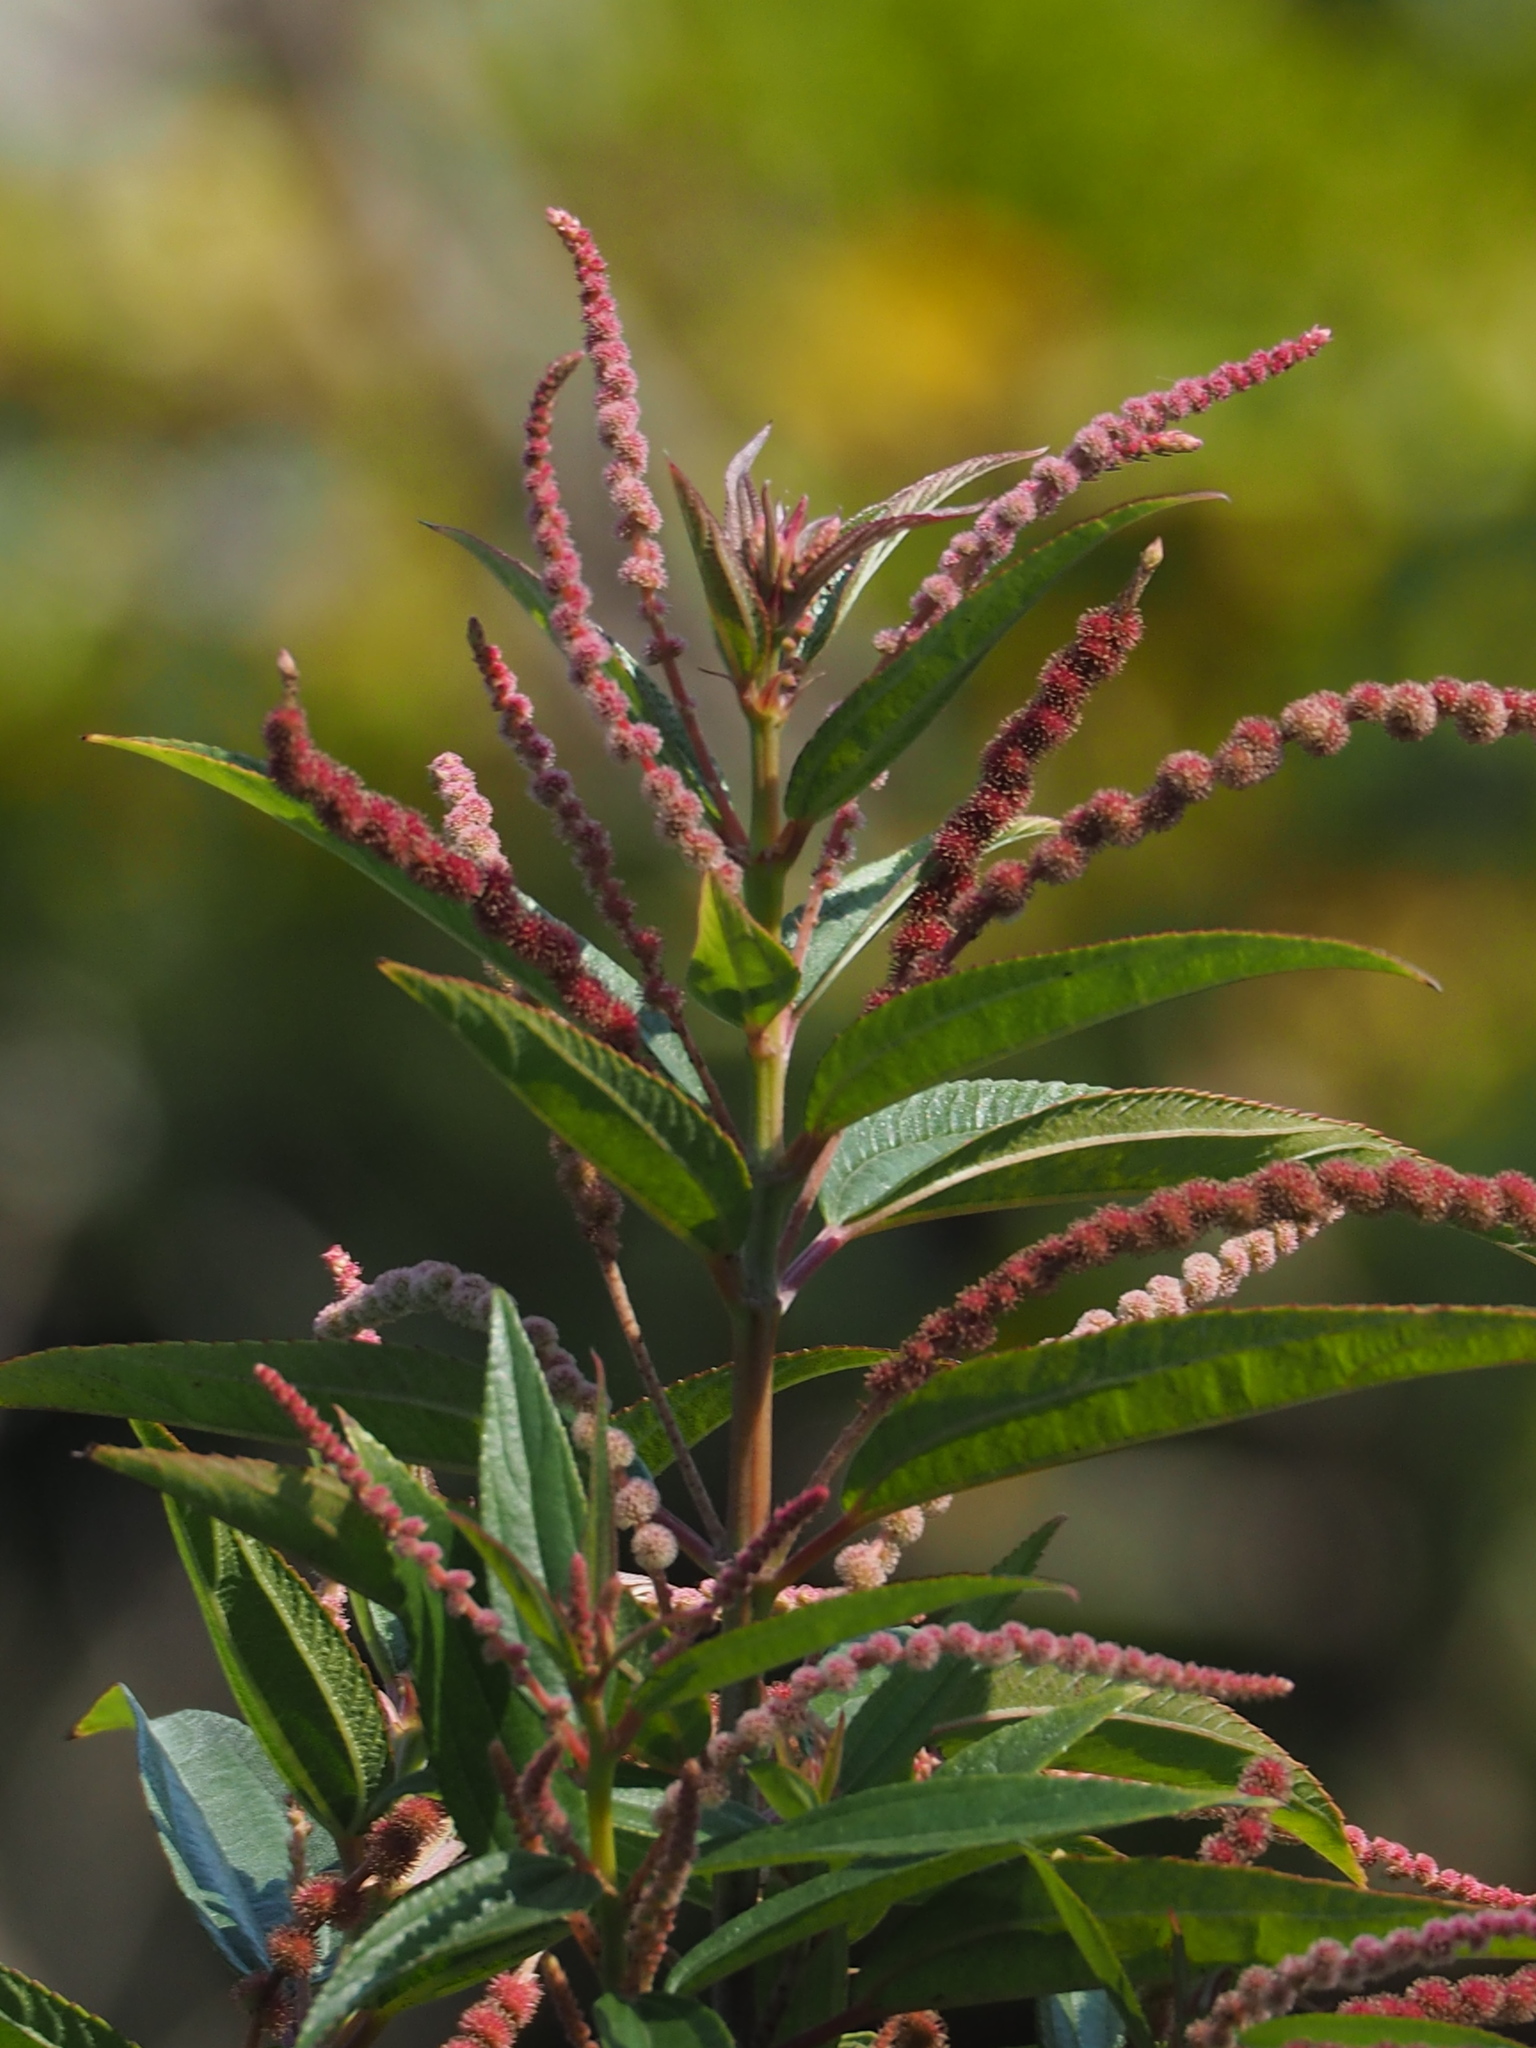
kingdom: Plantae
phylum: Tracheophyta
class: Magnoliopsida
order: Rosales
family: Urticaceae
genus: Boehmeria
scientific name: Boehmeria densiflora
